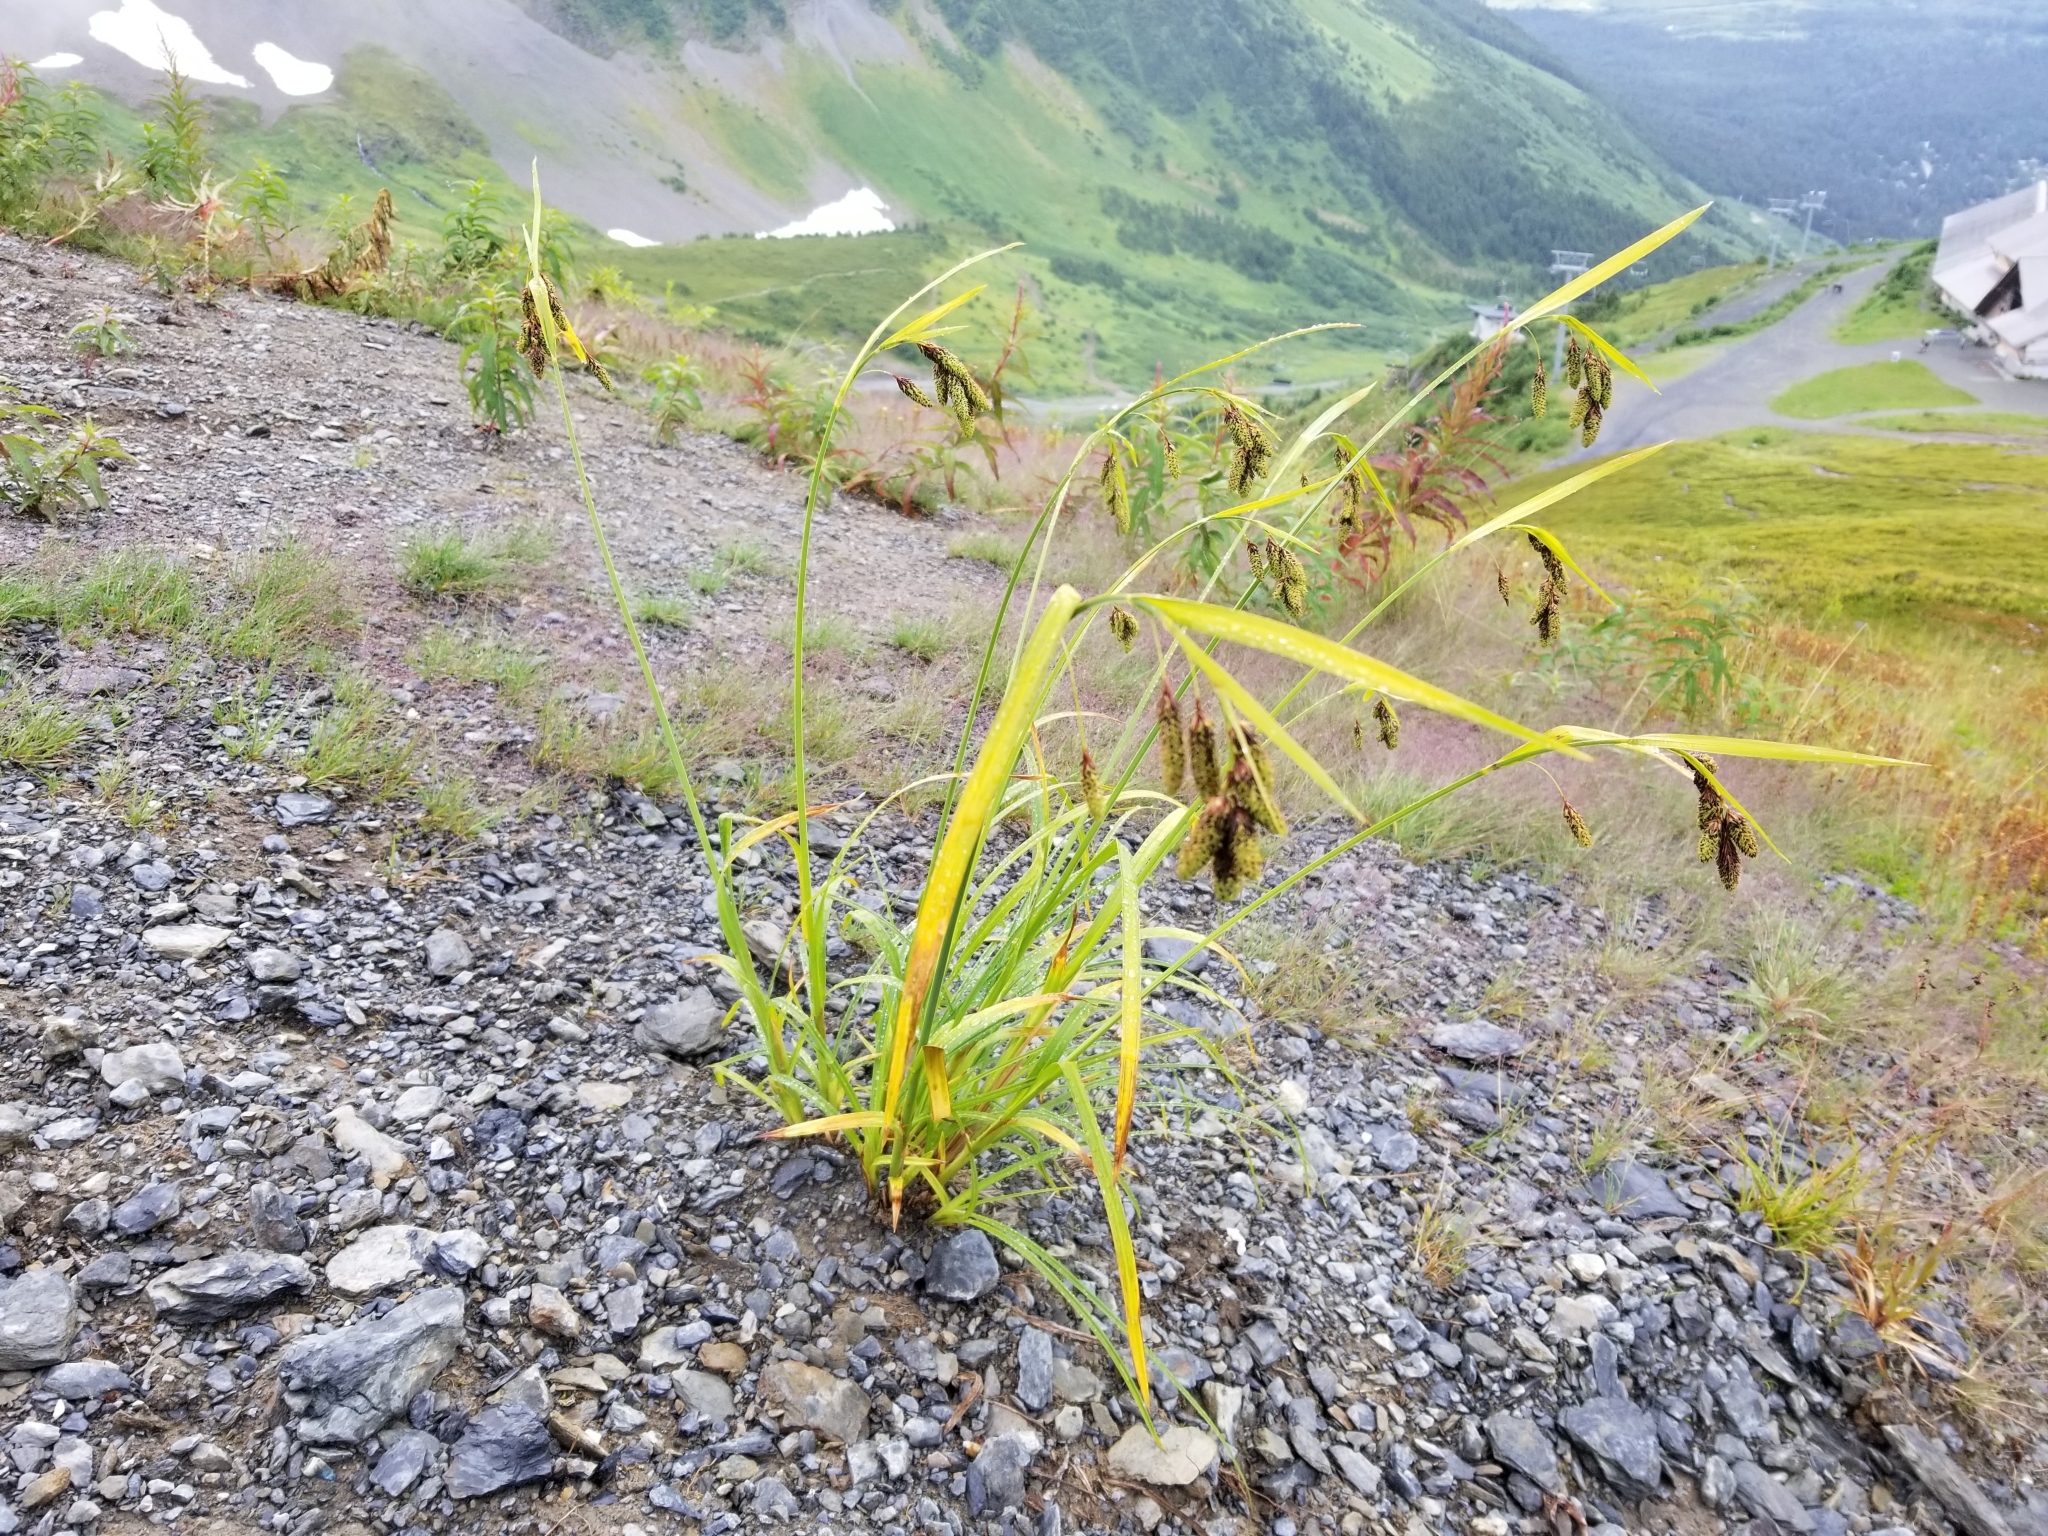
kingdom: Plantae
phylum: Tracheophyta
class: Liliopsida
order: Poales
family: Cyperaceae
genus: Carex
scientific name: Carex mertensii
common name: Mertens' sedge
